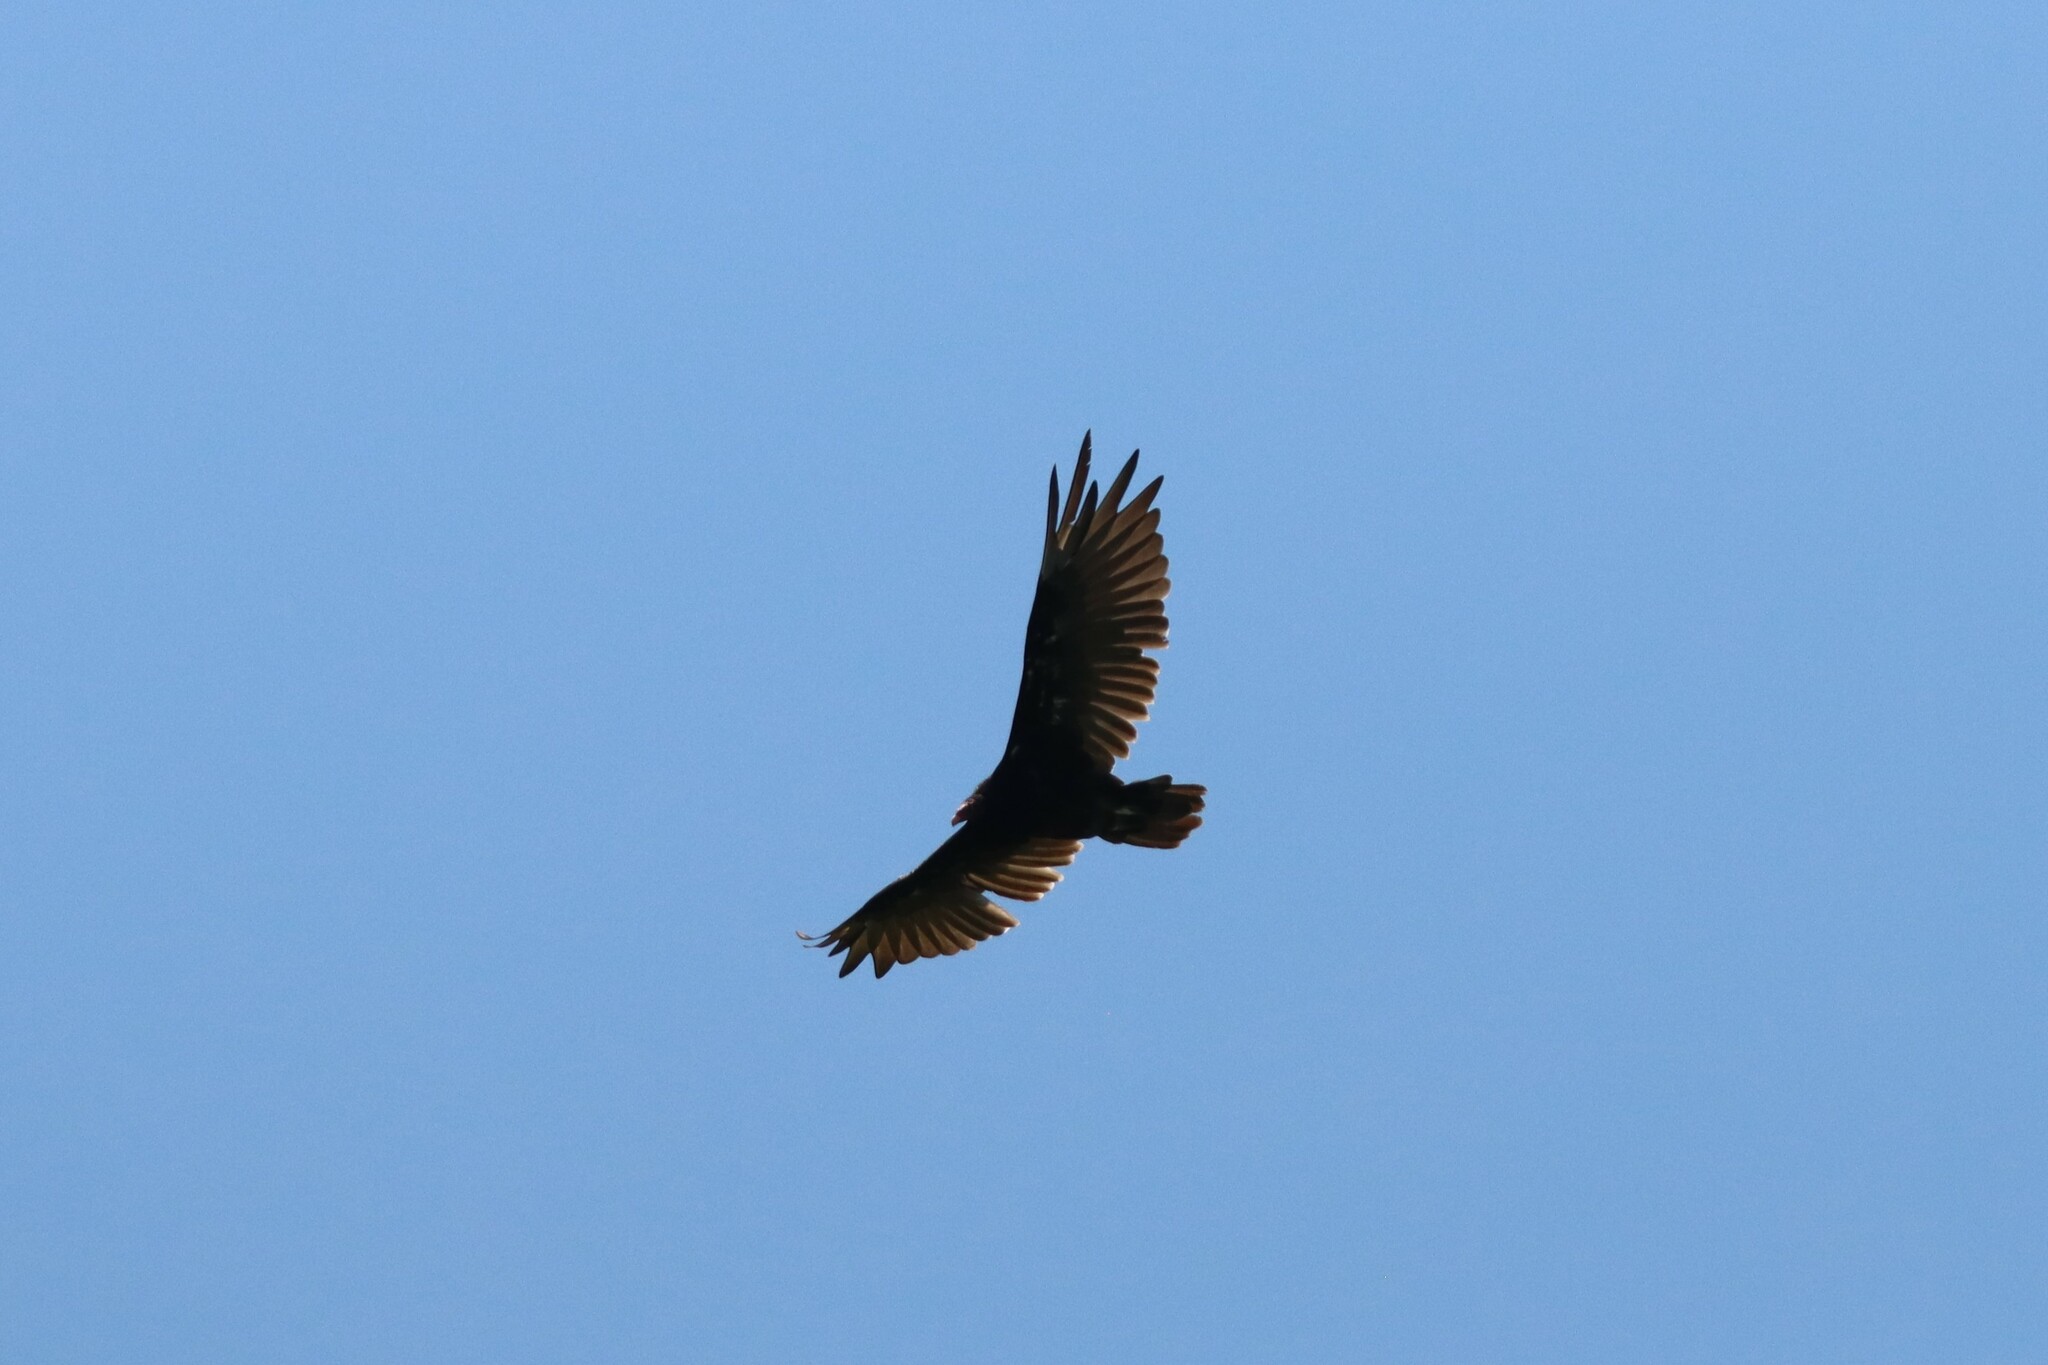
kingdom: Animalia
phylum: Chordata
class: Aves
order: Accipitriformes
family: Cathartidae
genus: Cathartes
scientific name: Cathartes aura
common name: Turkey vulture
